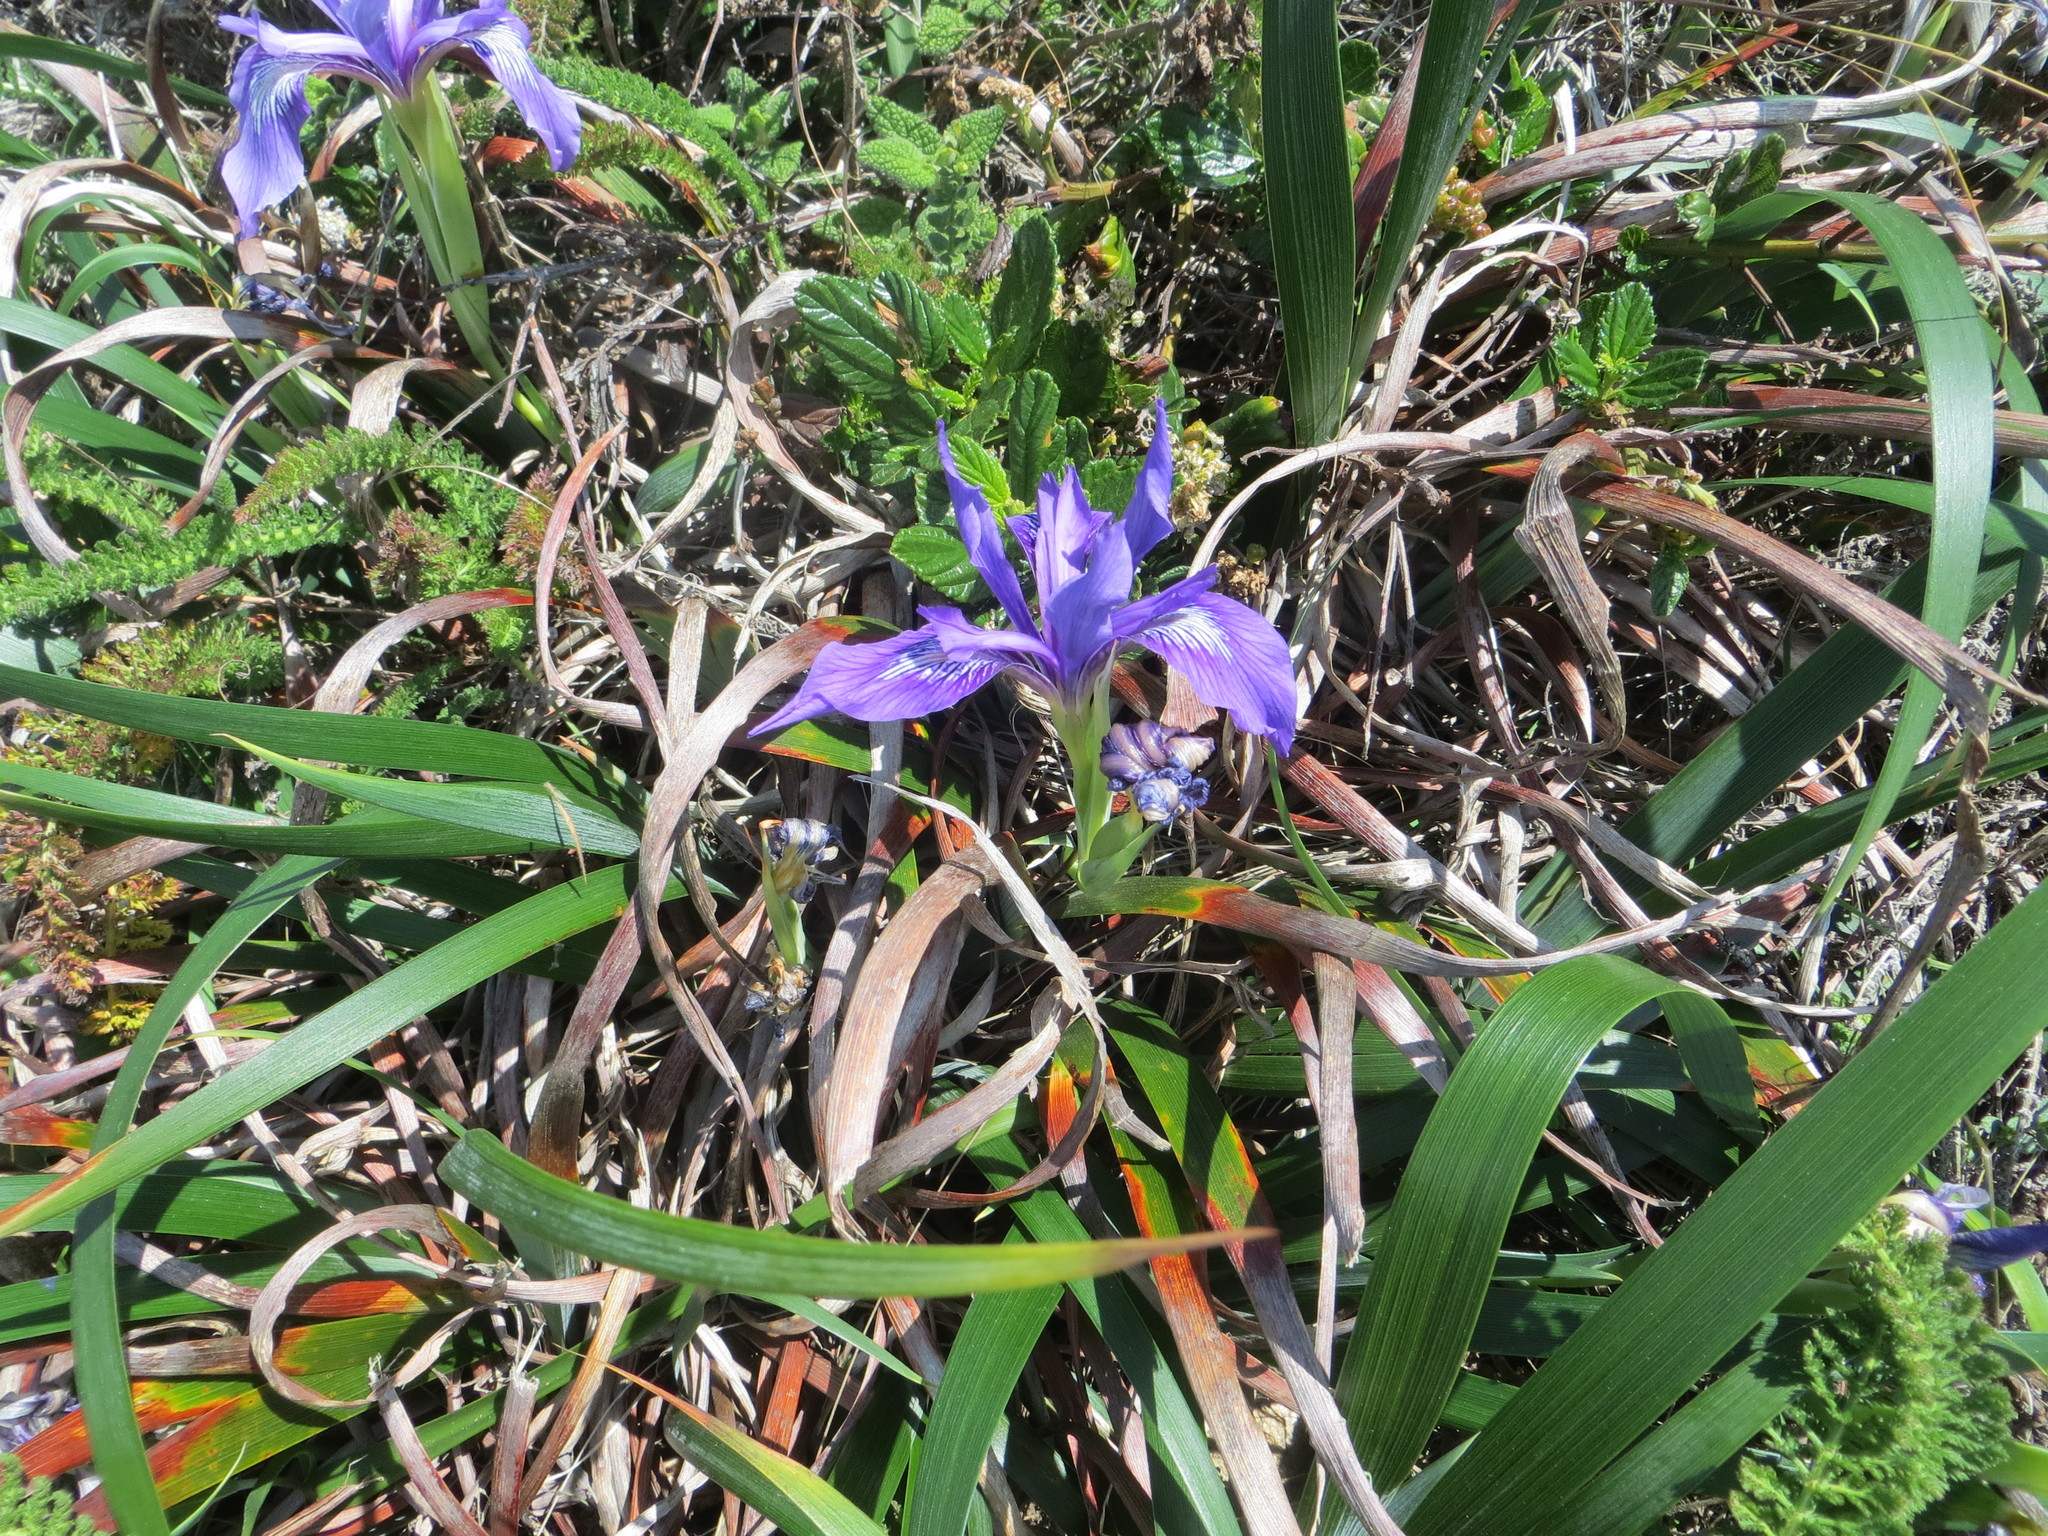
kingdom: Plantae
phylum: Tracheophyta
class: Liliopsida
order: Asparagales
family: Iridaceae
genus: Iris
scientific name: Iris douglasiana
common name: Marin iris
